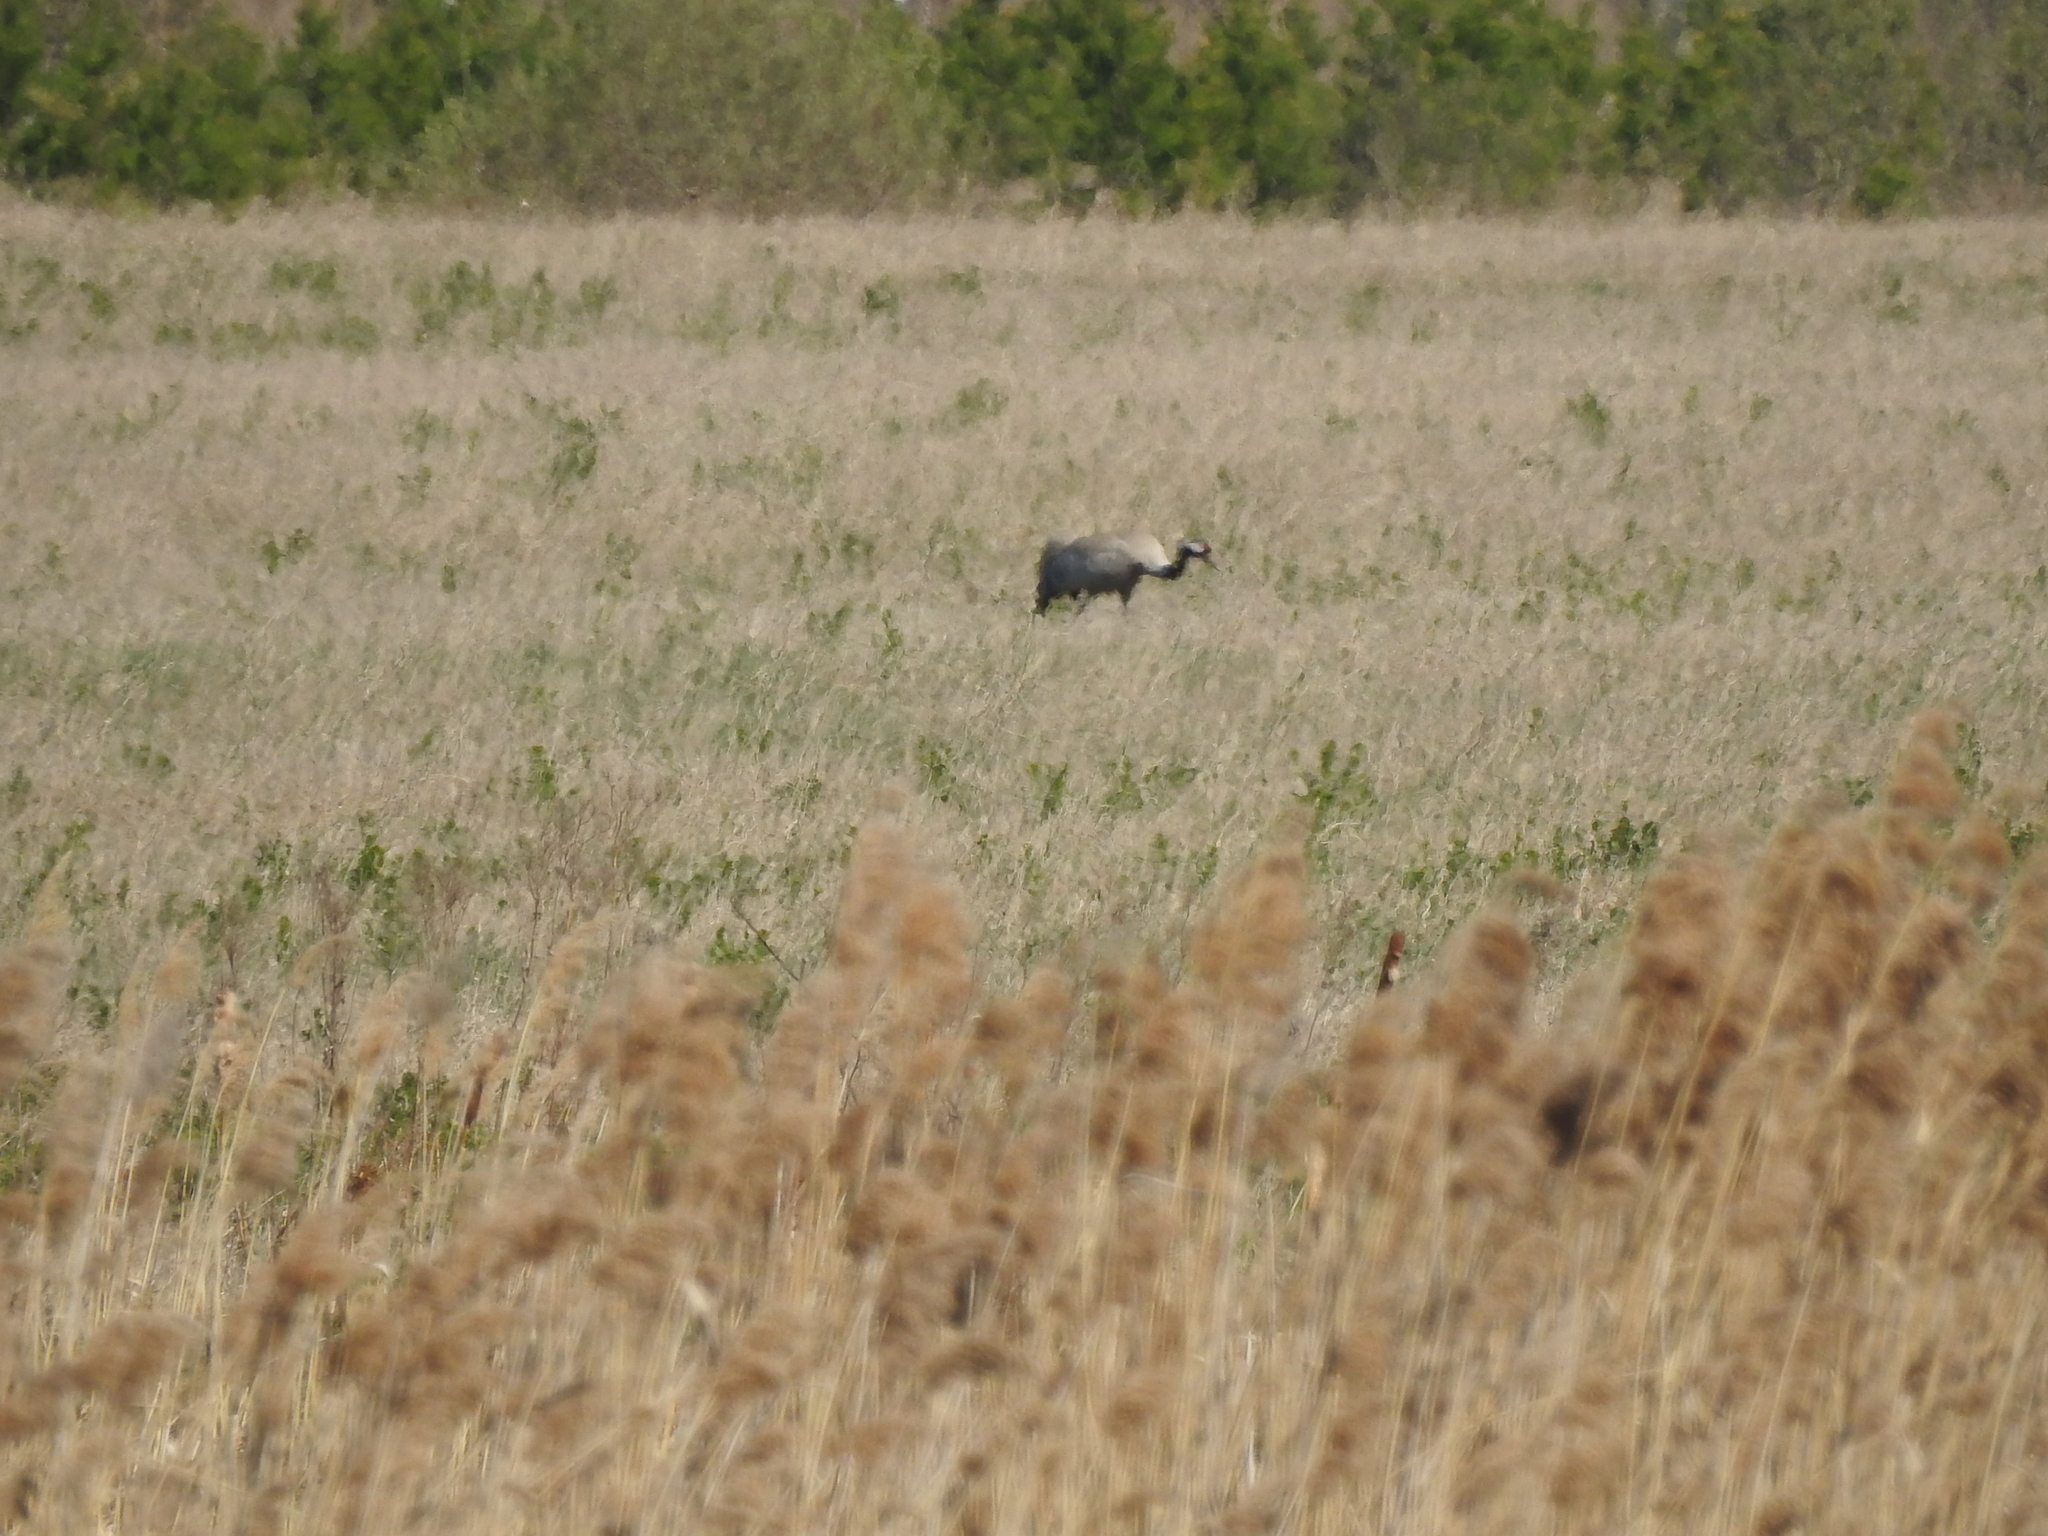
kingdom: Animalia
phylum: Chordata
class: Aves
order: Gruiformes
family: Gruidae
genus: Grus
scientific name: Grus grus
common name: Common crane
